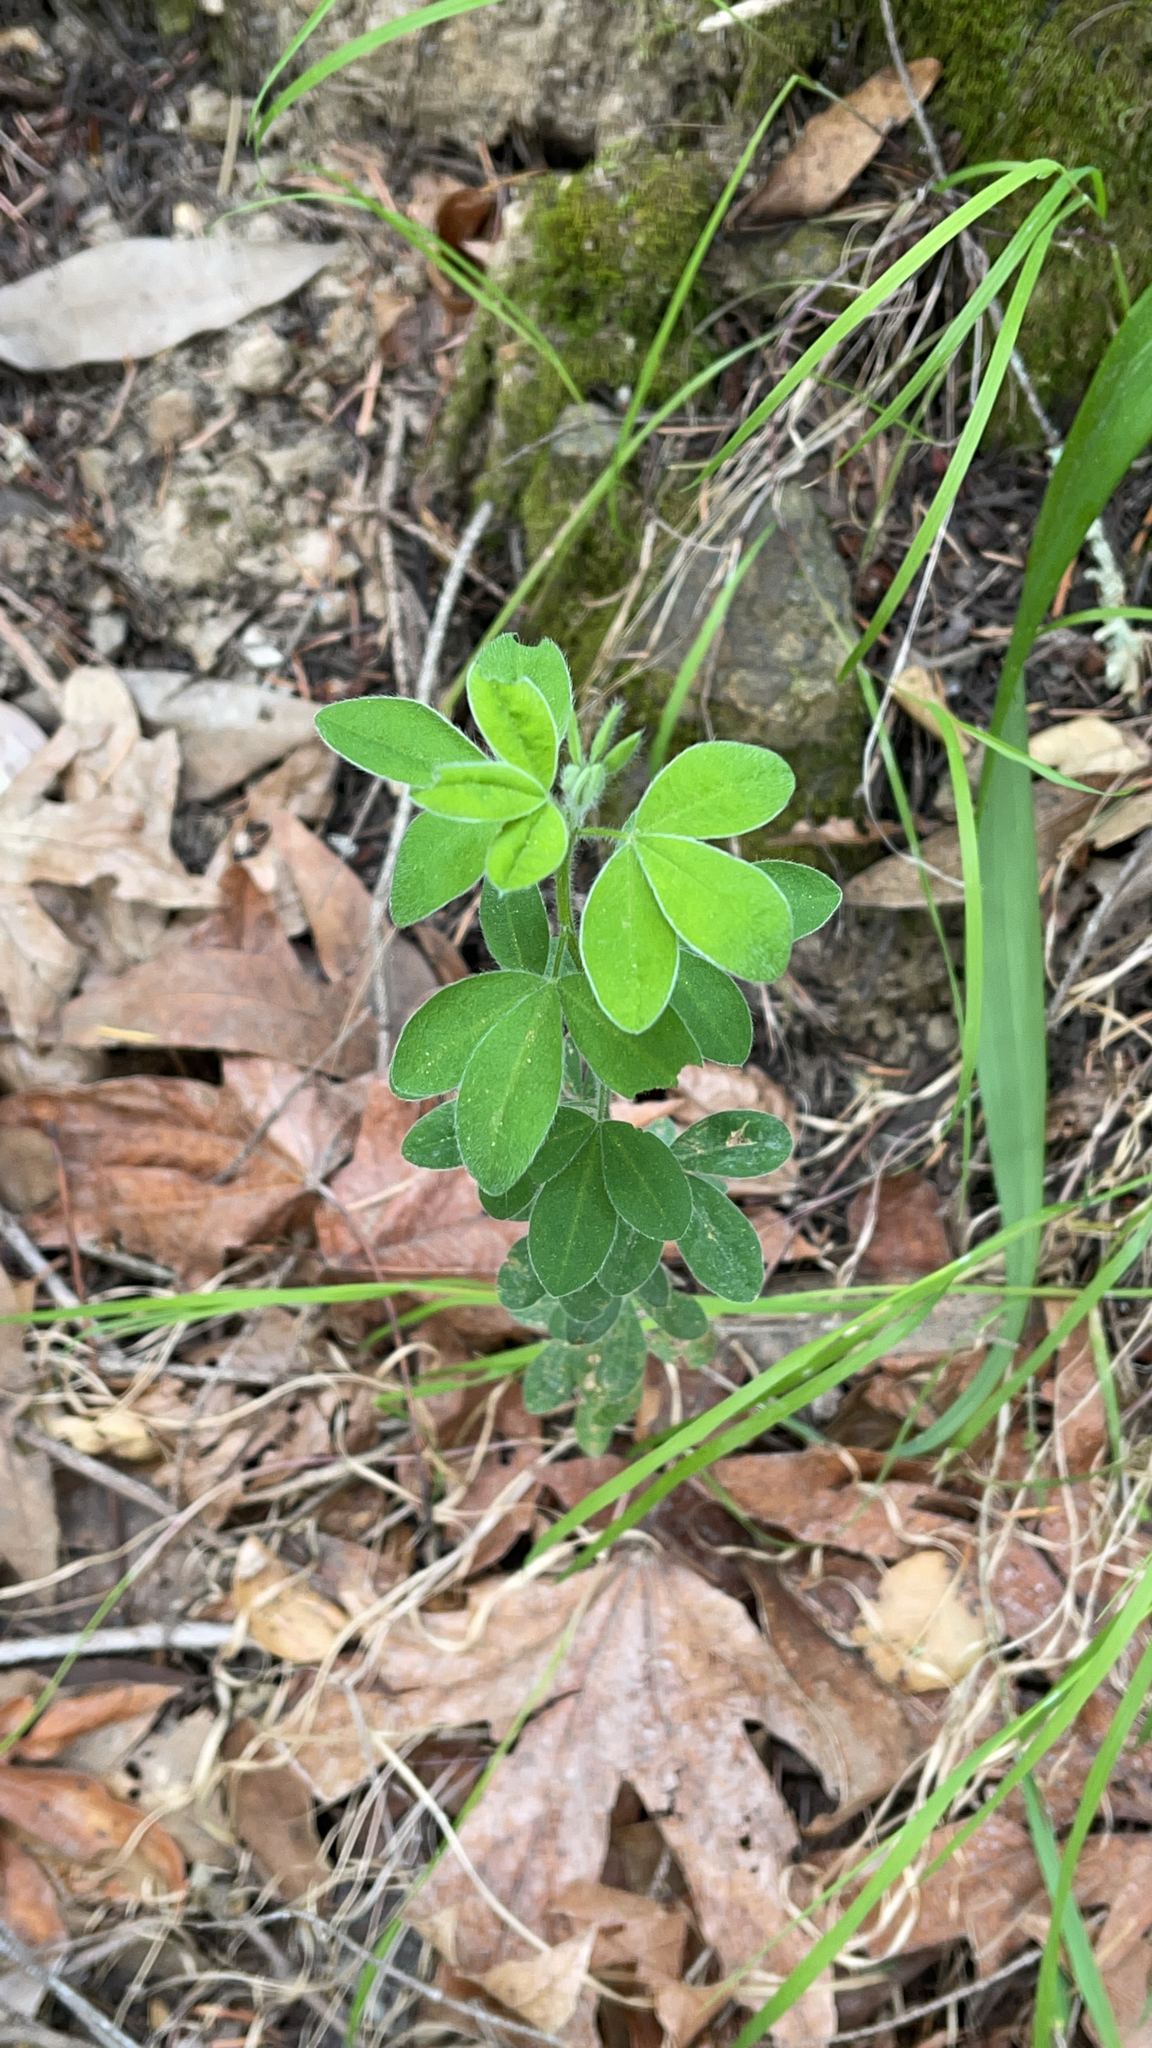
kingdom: Plantae
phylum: Tracheophyta
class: Magnoliopsida
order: Fabales
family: Fabaceae
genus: Genista
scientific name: Genista monspessulana
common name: Montpellier broom
